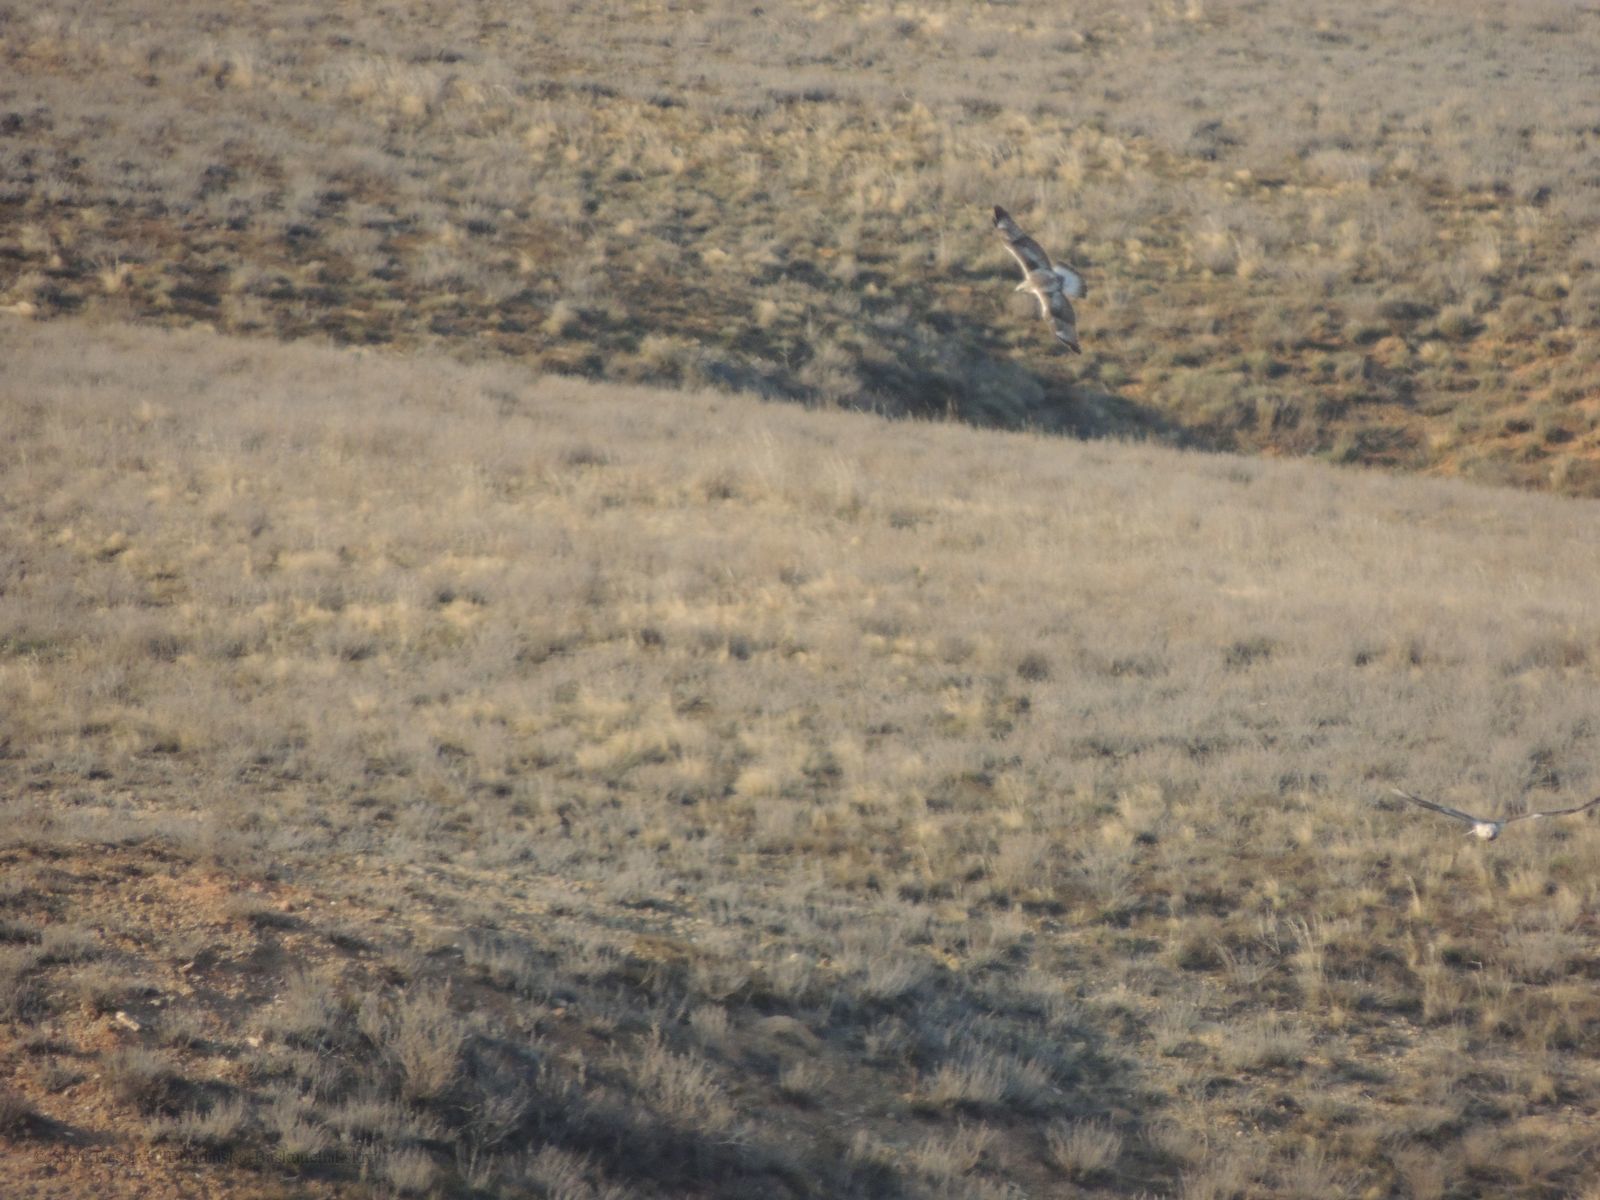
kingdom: Animalia
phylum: Chordata
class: Aves
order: Accipitriformes
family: Accipitridae
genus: Buteo
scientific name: Buteo lagopus
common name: Rough-legged buzzard
